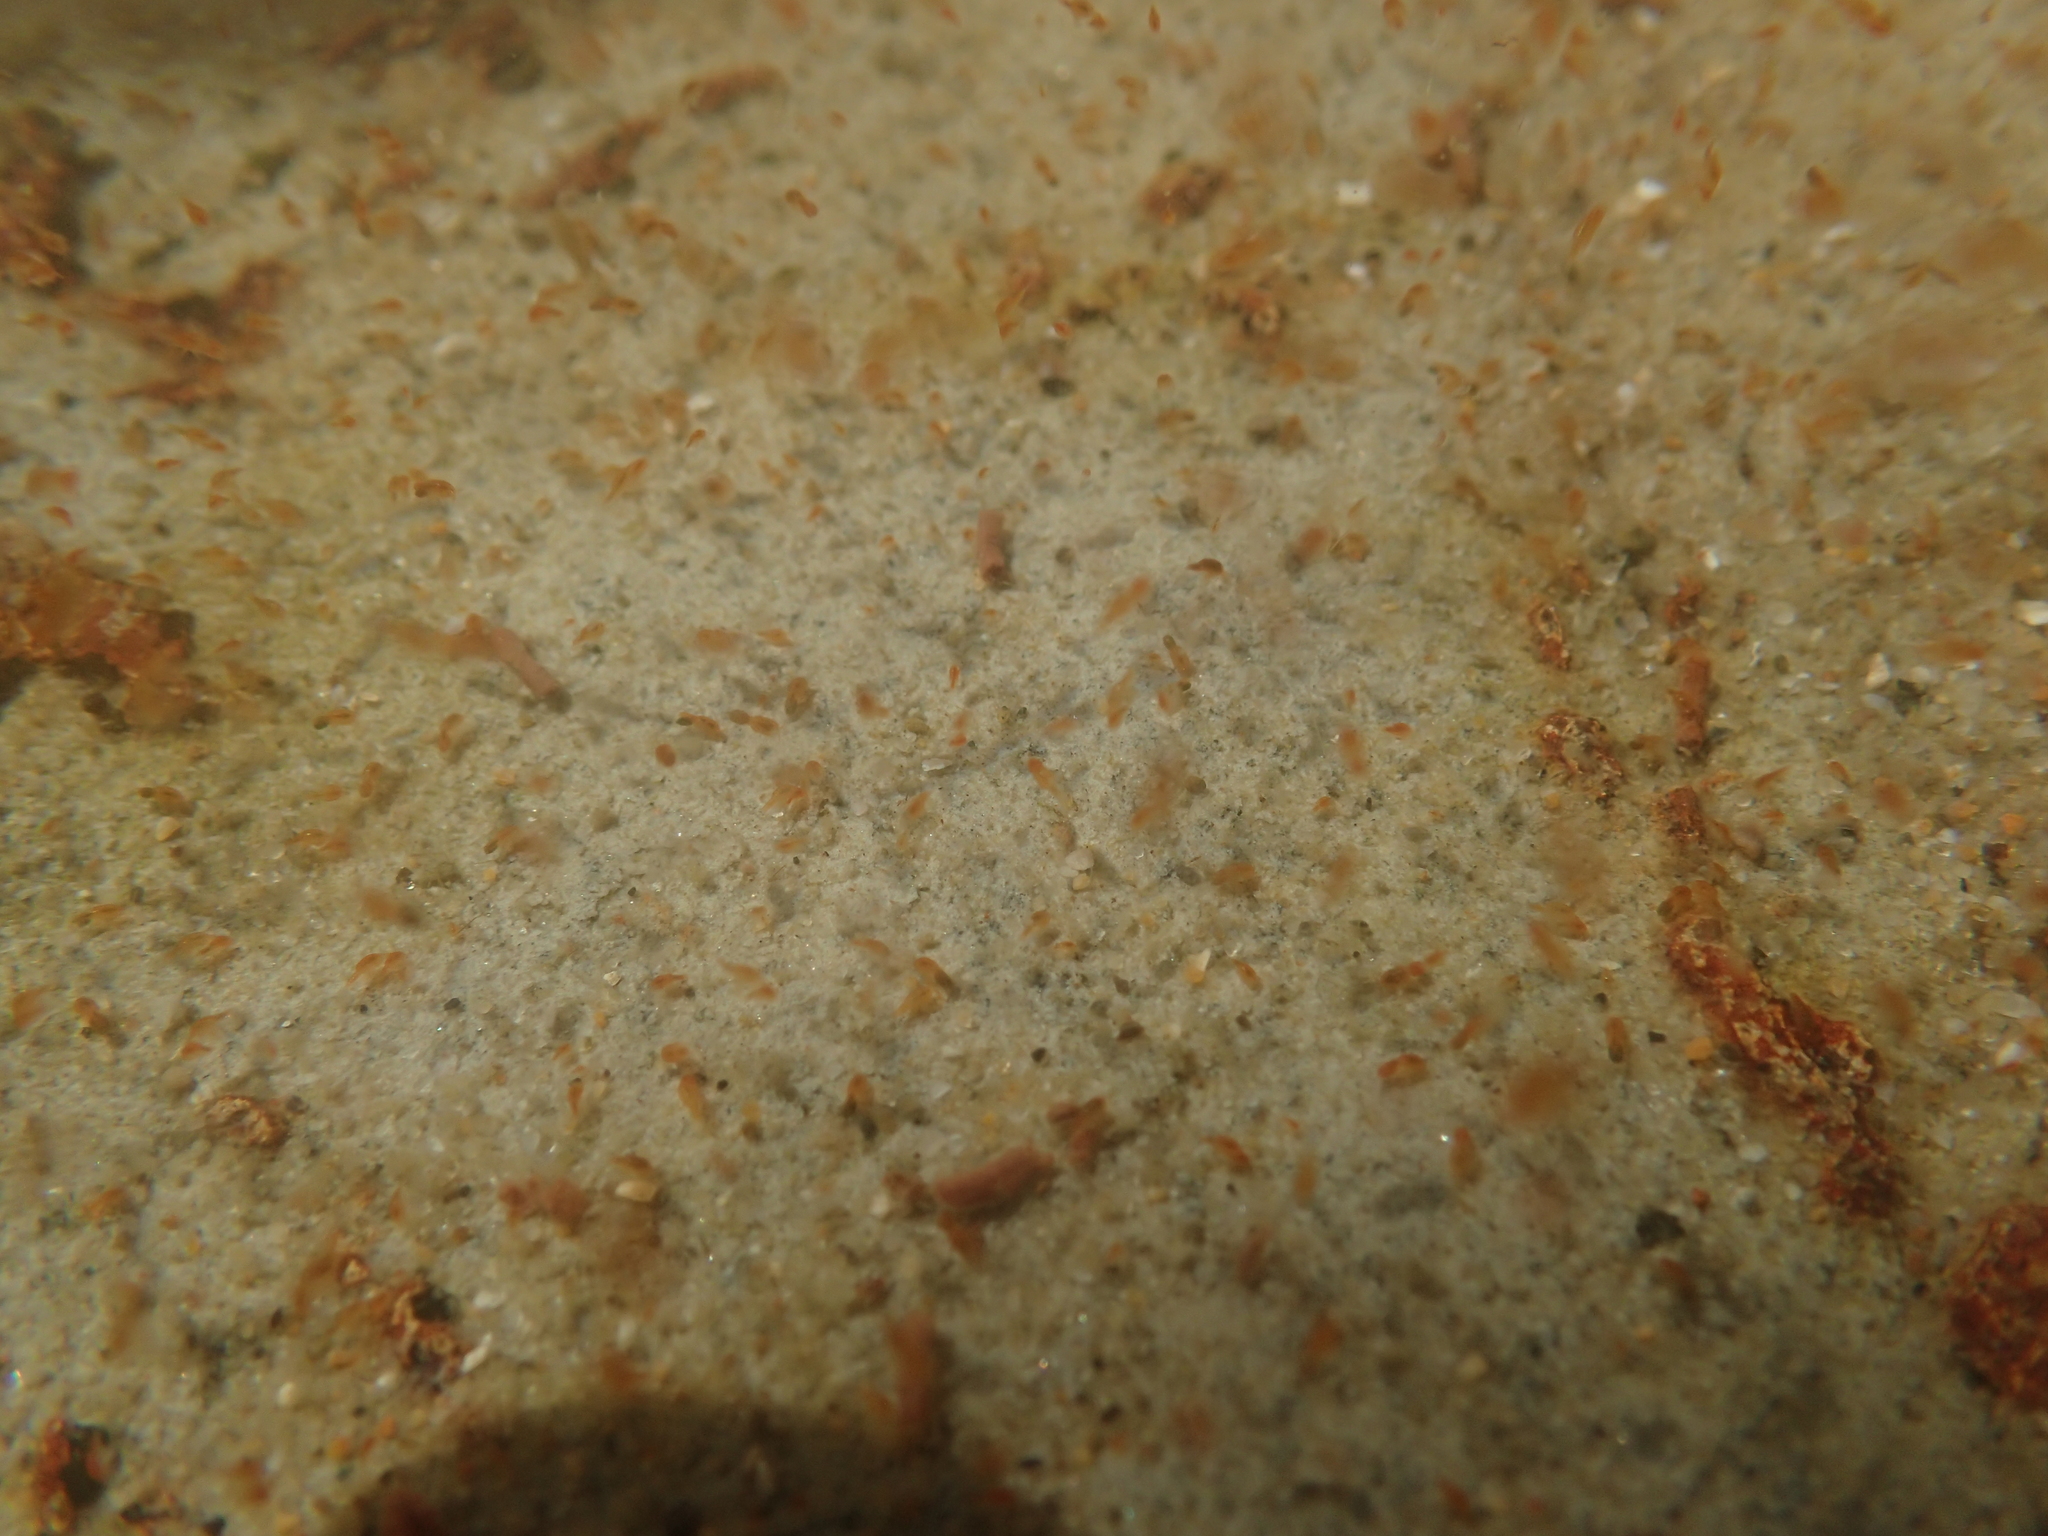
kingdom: Animalia
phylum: Arthropoda
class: Copepoda
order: Harpacticoida
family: Harpacticidae
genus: Tigriopus
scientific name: Tigriopus californicus
